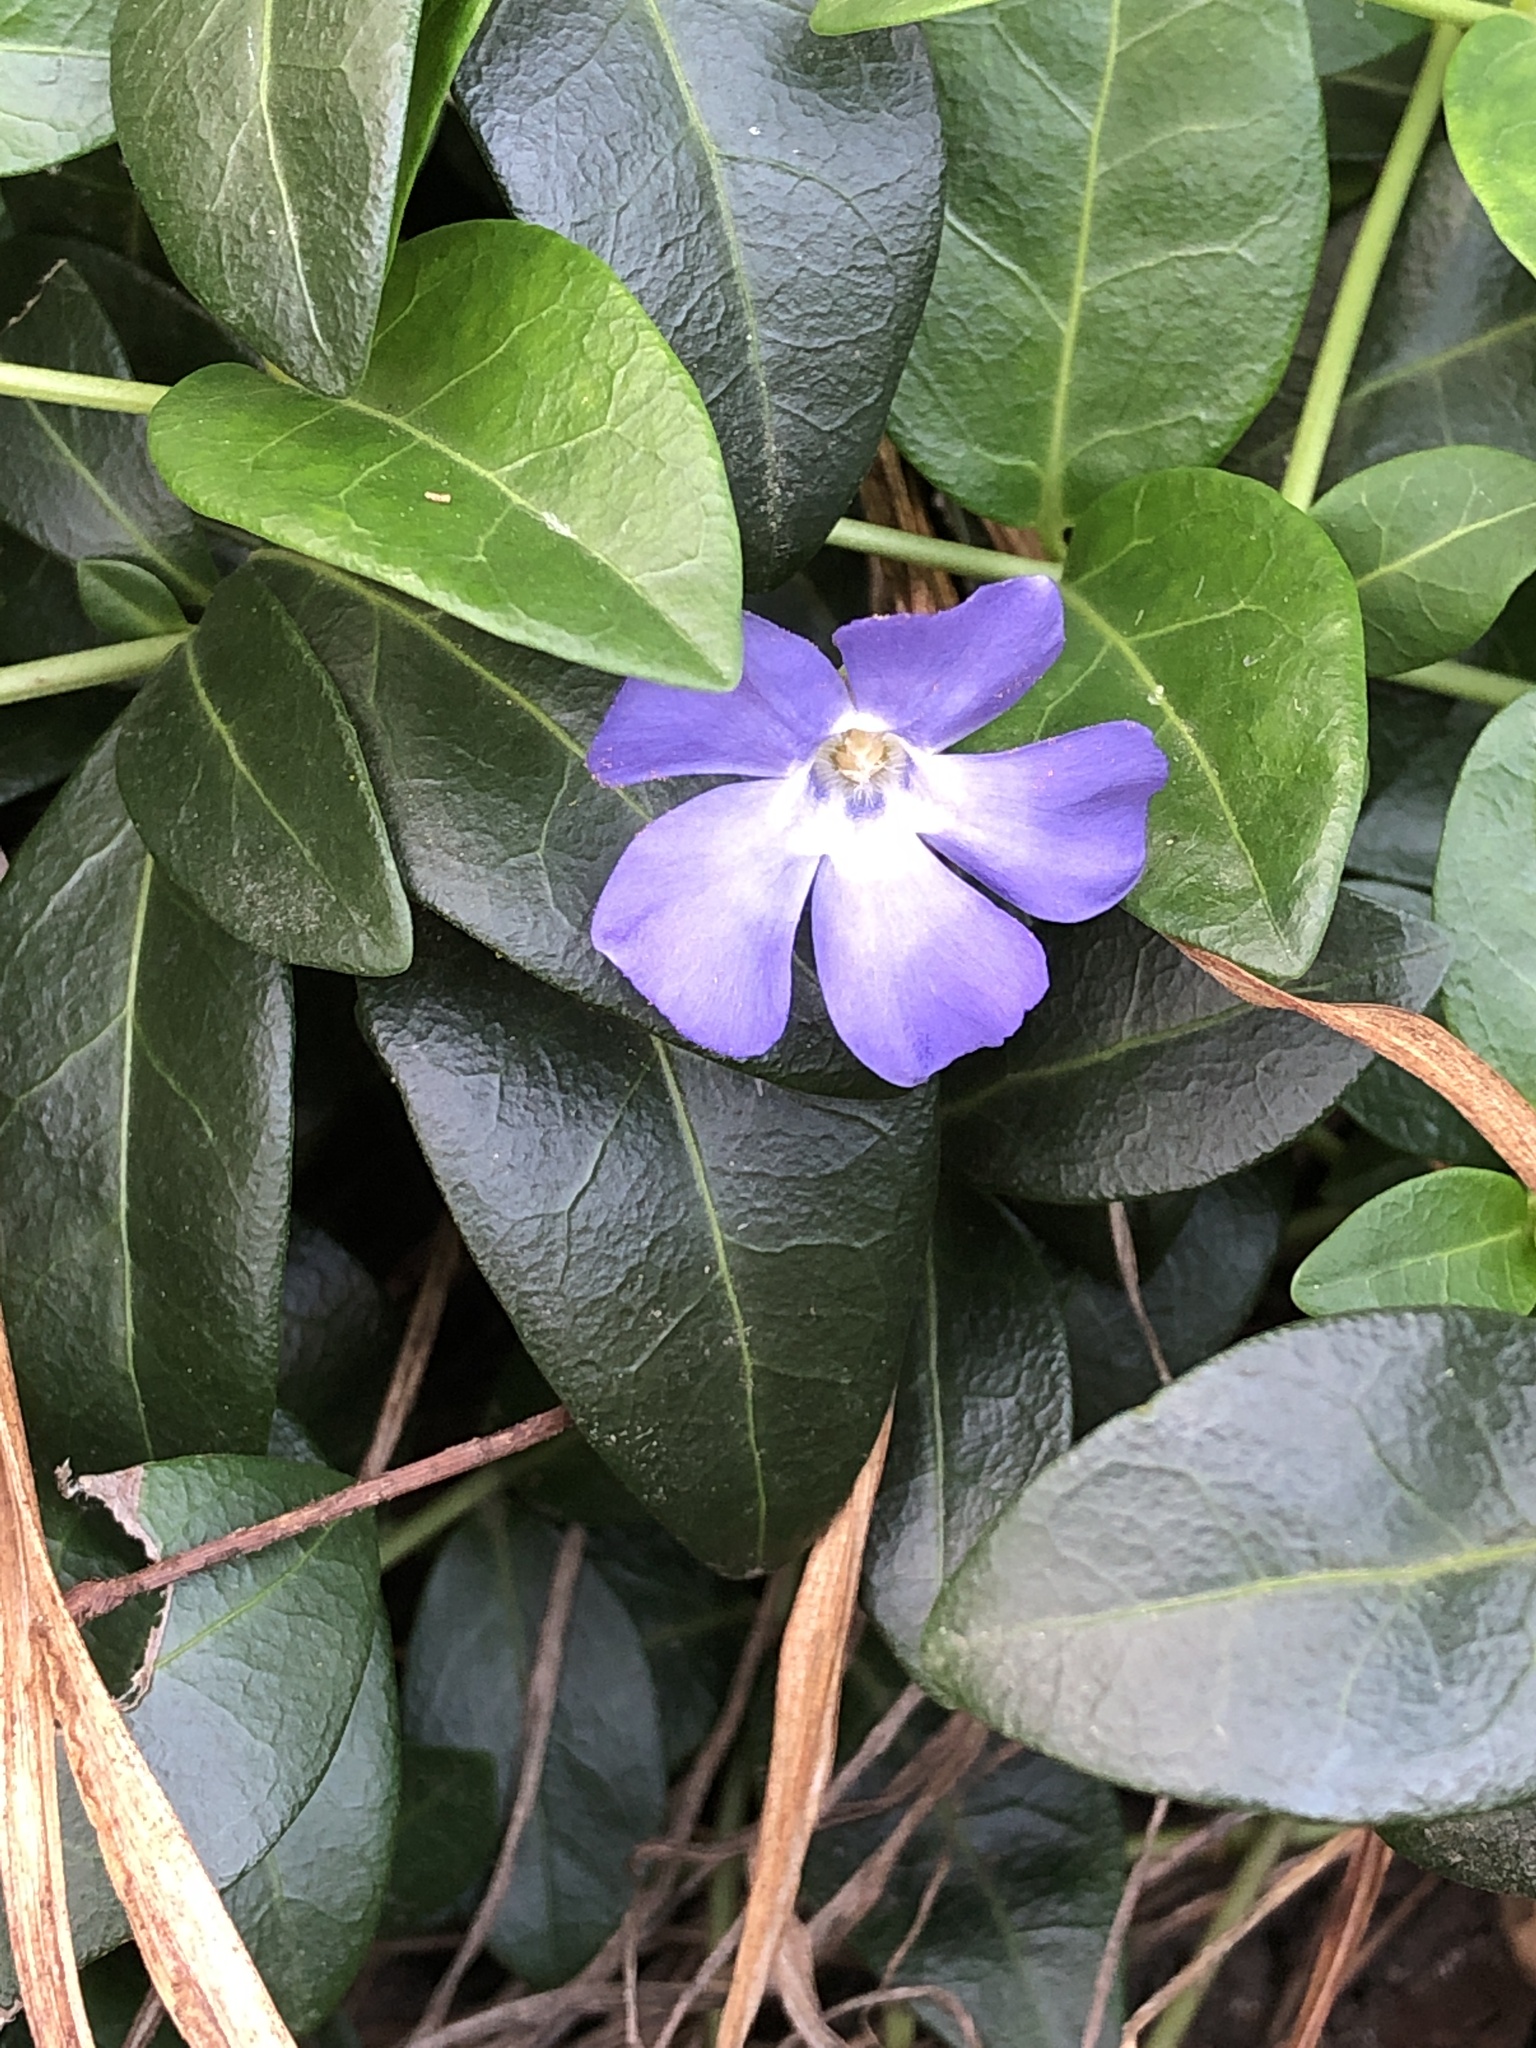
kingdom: Plantae
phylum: Tracheophyta
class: Magnoliopsida
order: Gentianales
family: Apocynaceae
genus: Vinca
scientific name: Vinca minor
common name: Lesser periwinkle
